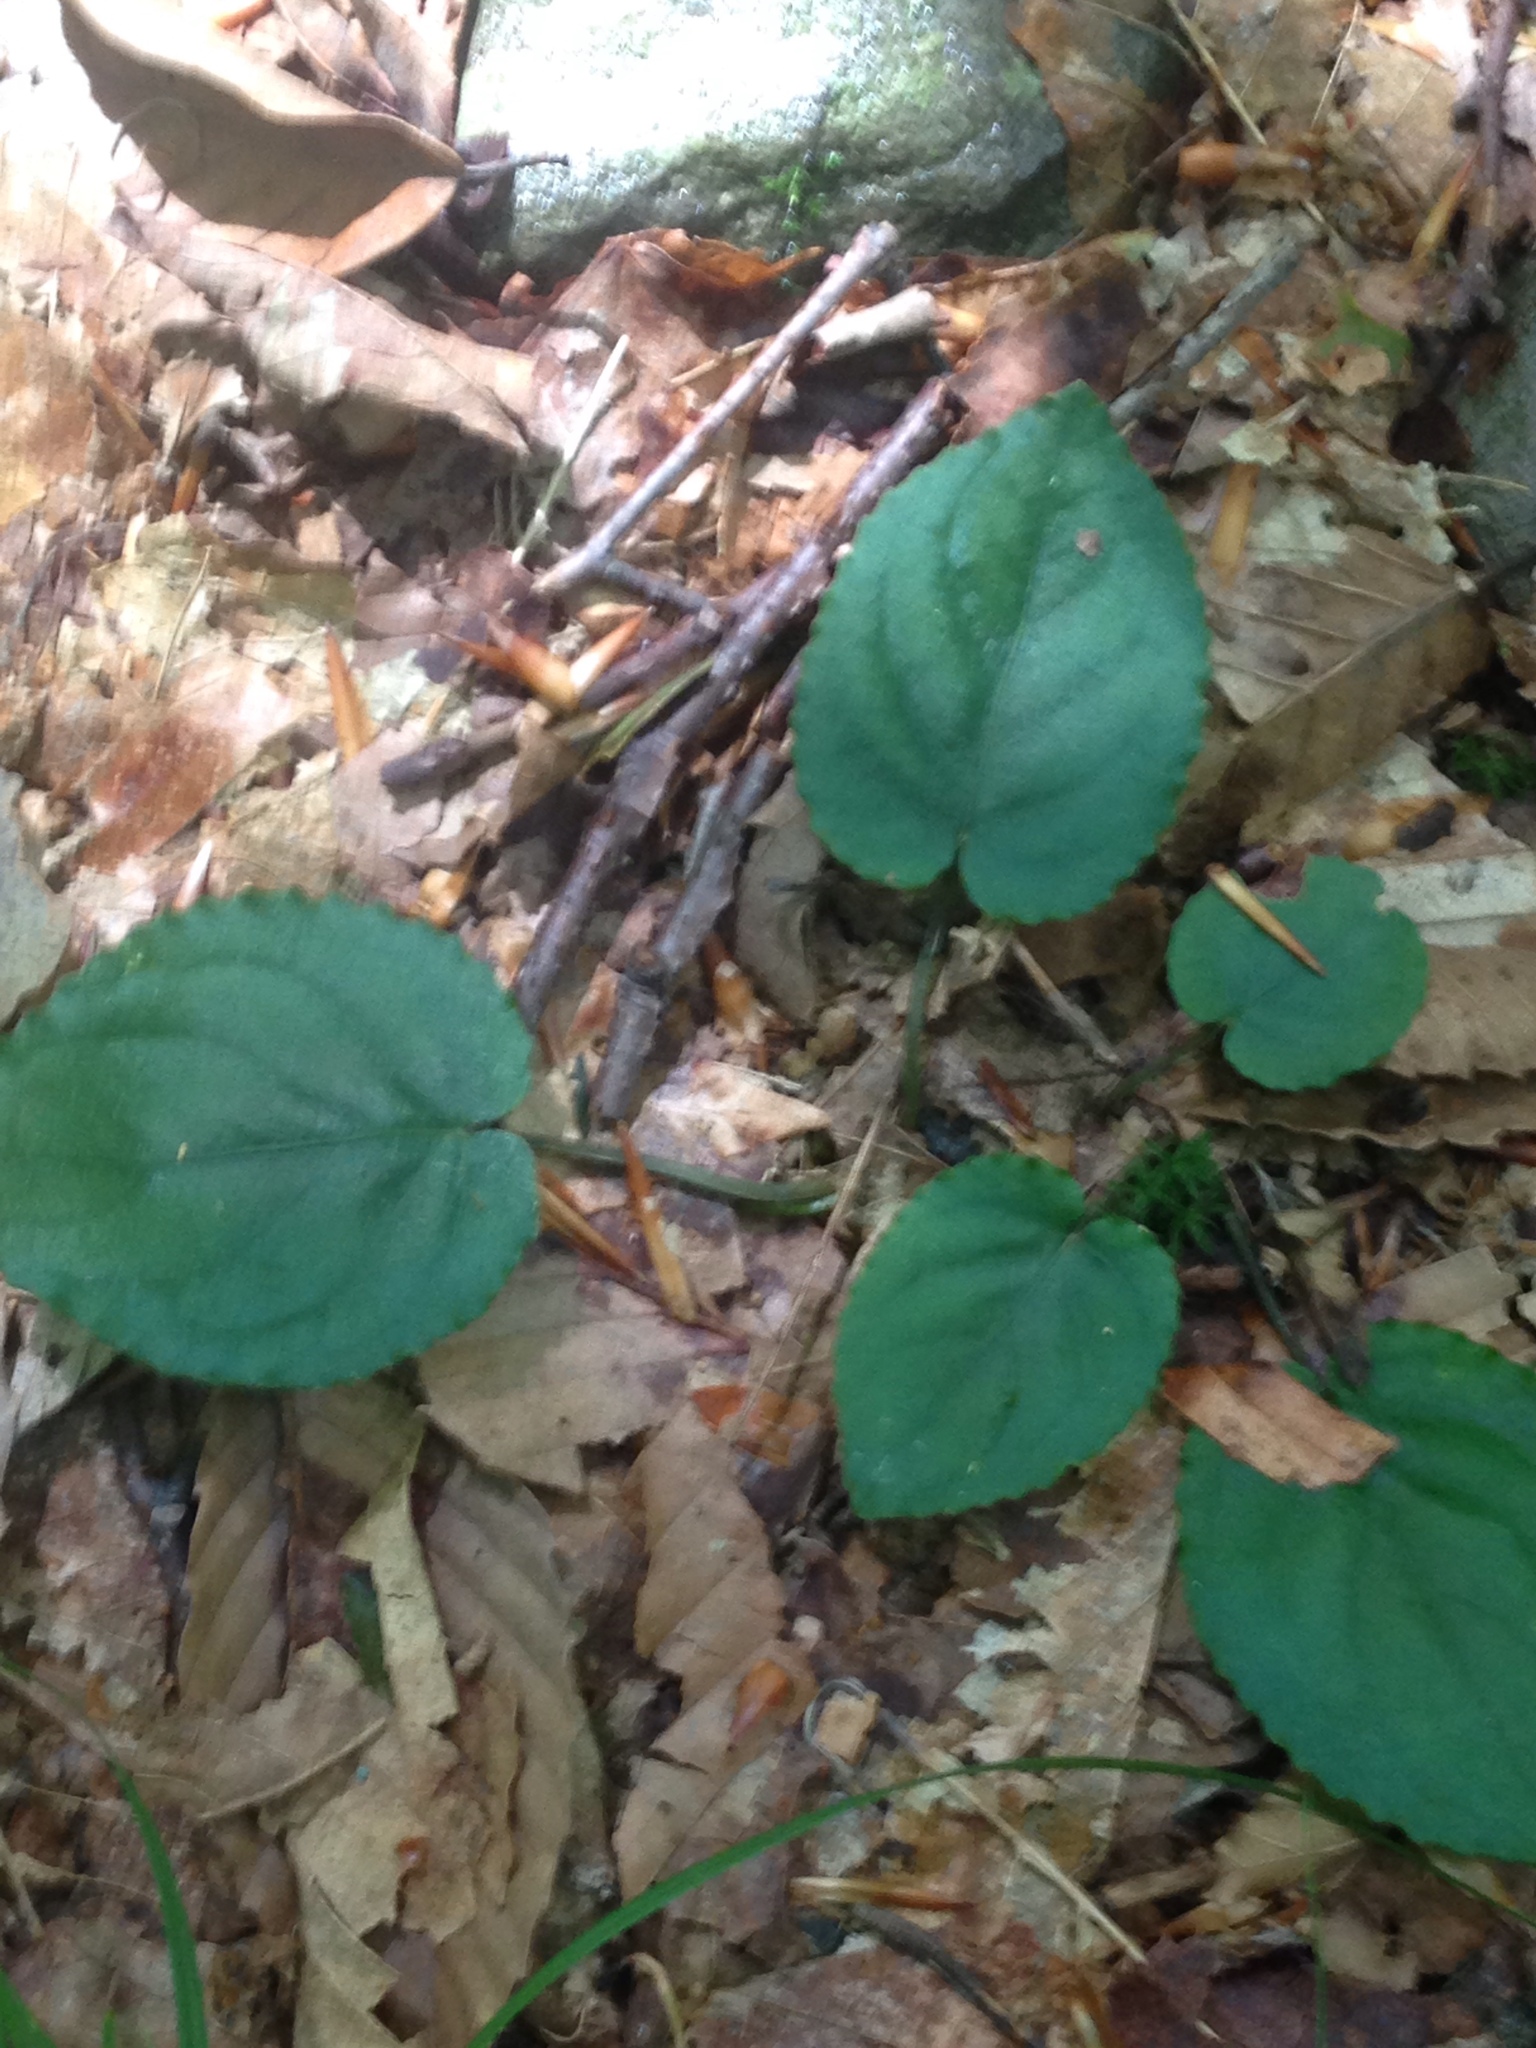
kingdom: Plantae
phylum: Tracheophyta
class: Magnoliopsida
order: Malpighiales
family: Violaceae
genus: Viola
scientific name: Viola rotundifolia
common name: Early yellow violet
